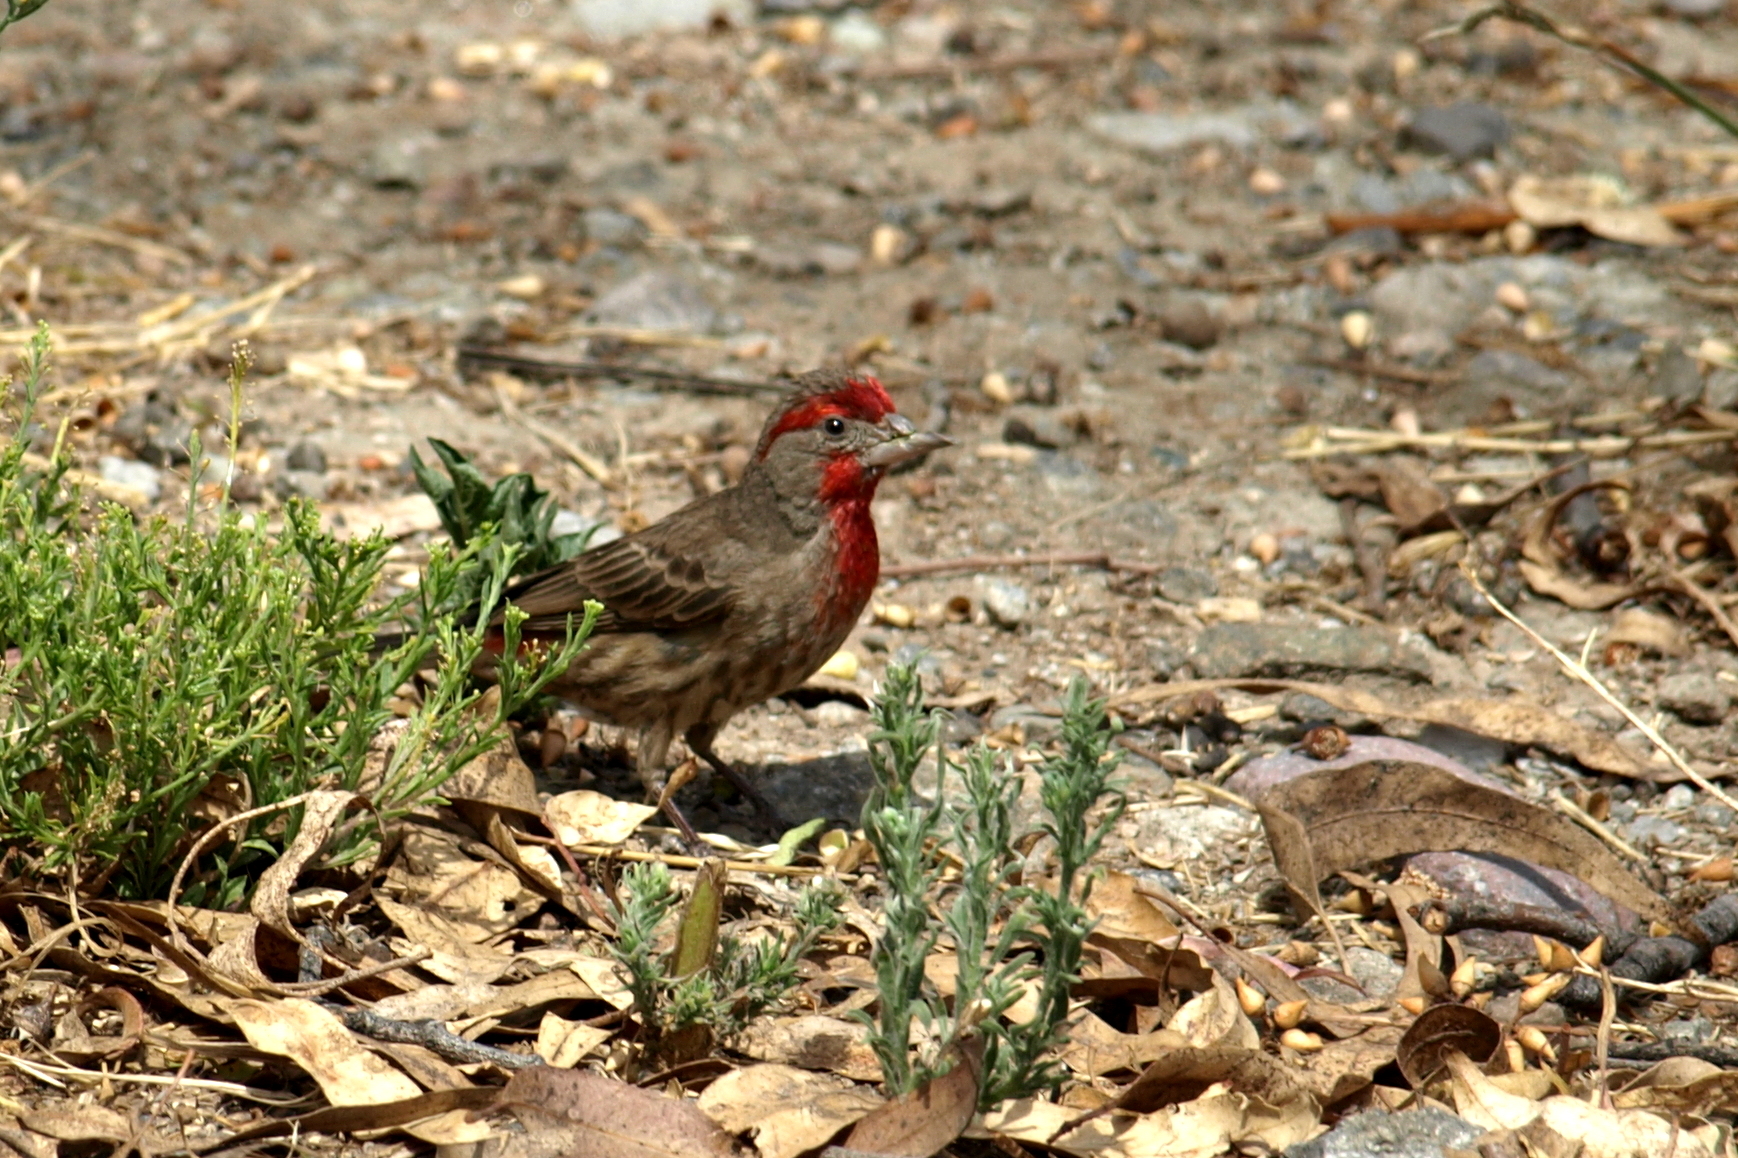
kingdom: Animalia
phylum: Chordata
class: Aves
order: Passeriformes
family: Fringillidae
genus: Haemorhous
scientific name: Haemorhous mexicanus
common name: House finch
